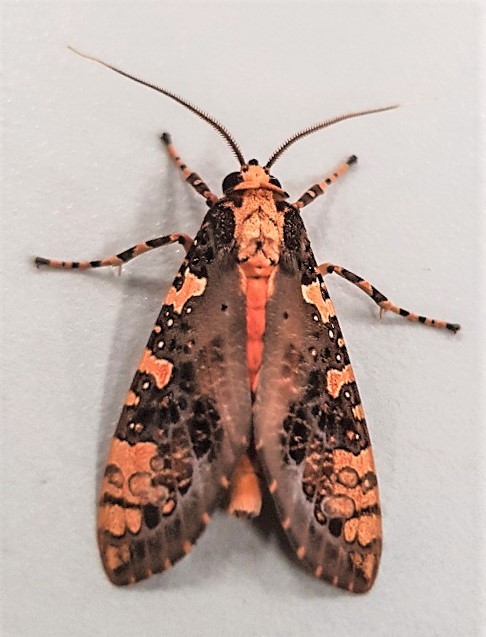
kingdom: Animalia
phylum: Arthropoda
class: Insecta
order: Lepidoptera
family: Erebidae
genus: Cresera
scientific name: Cresera ilus
